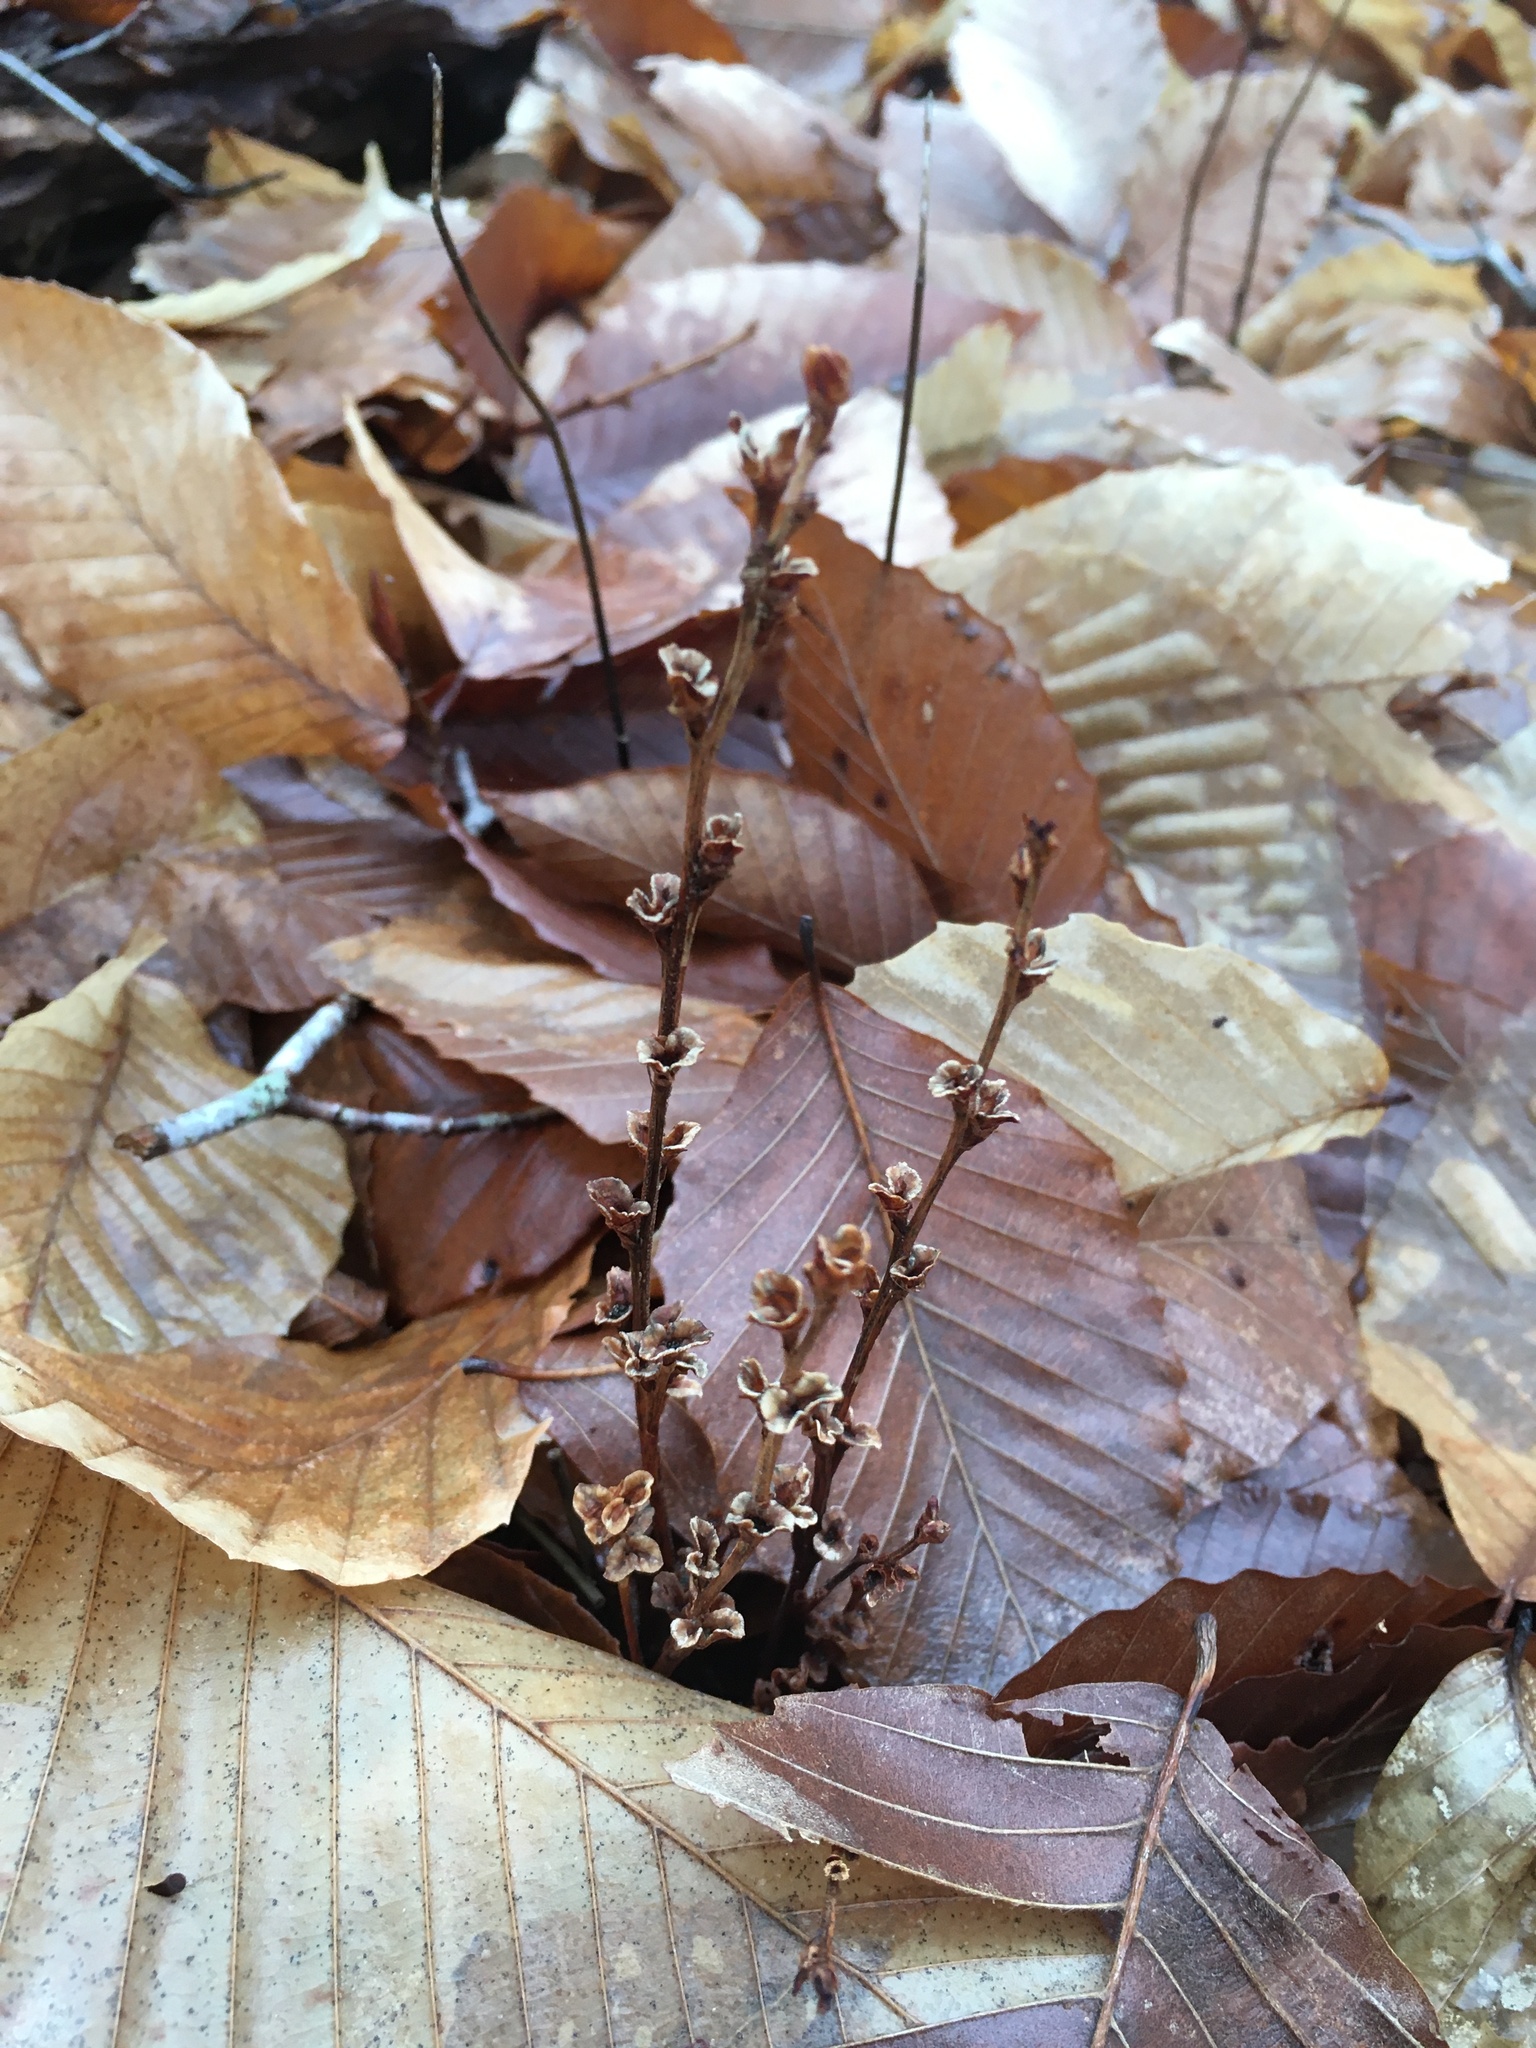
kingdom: Plantae
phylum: Tracheophyta
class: Magnoliopsida
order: Lamiales
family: Orobanchaceae
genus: Epifagus
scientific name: Epifagus virginiana
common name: Beechdrops
